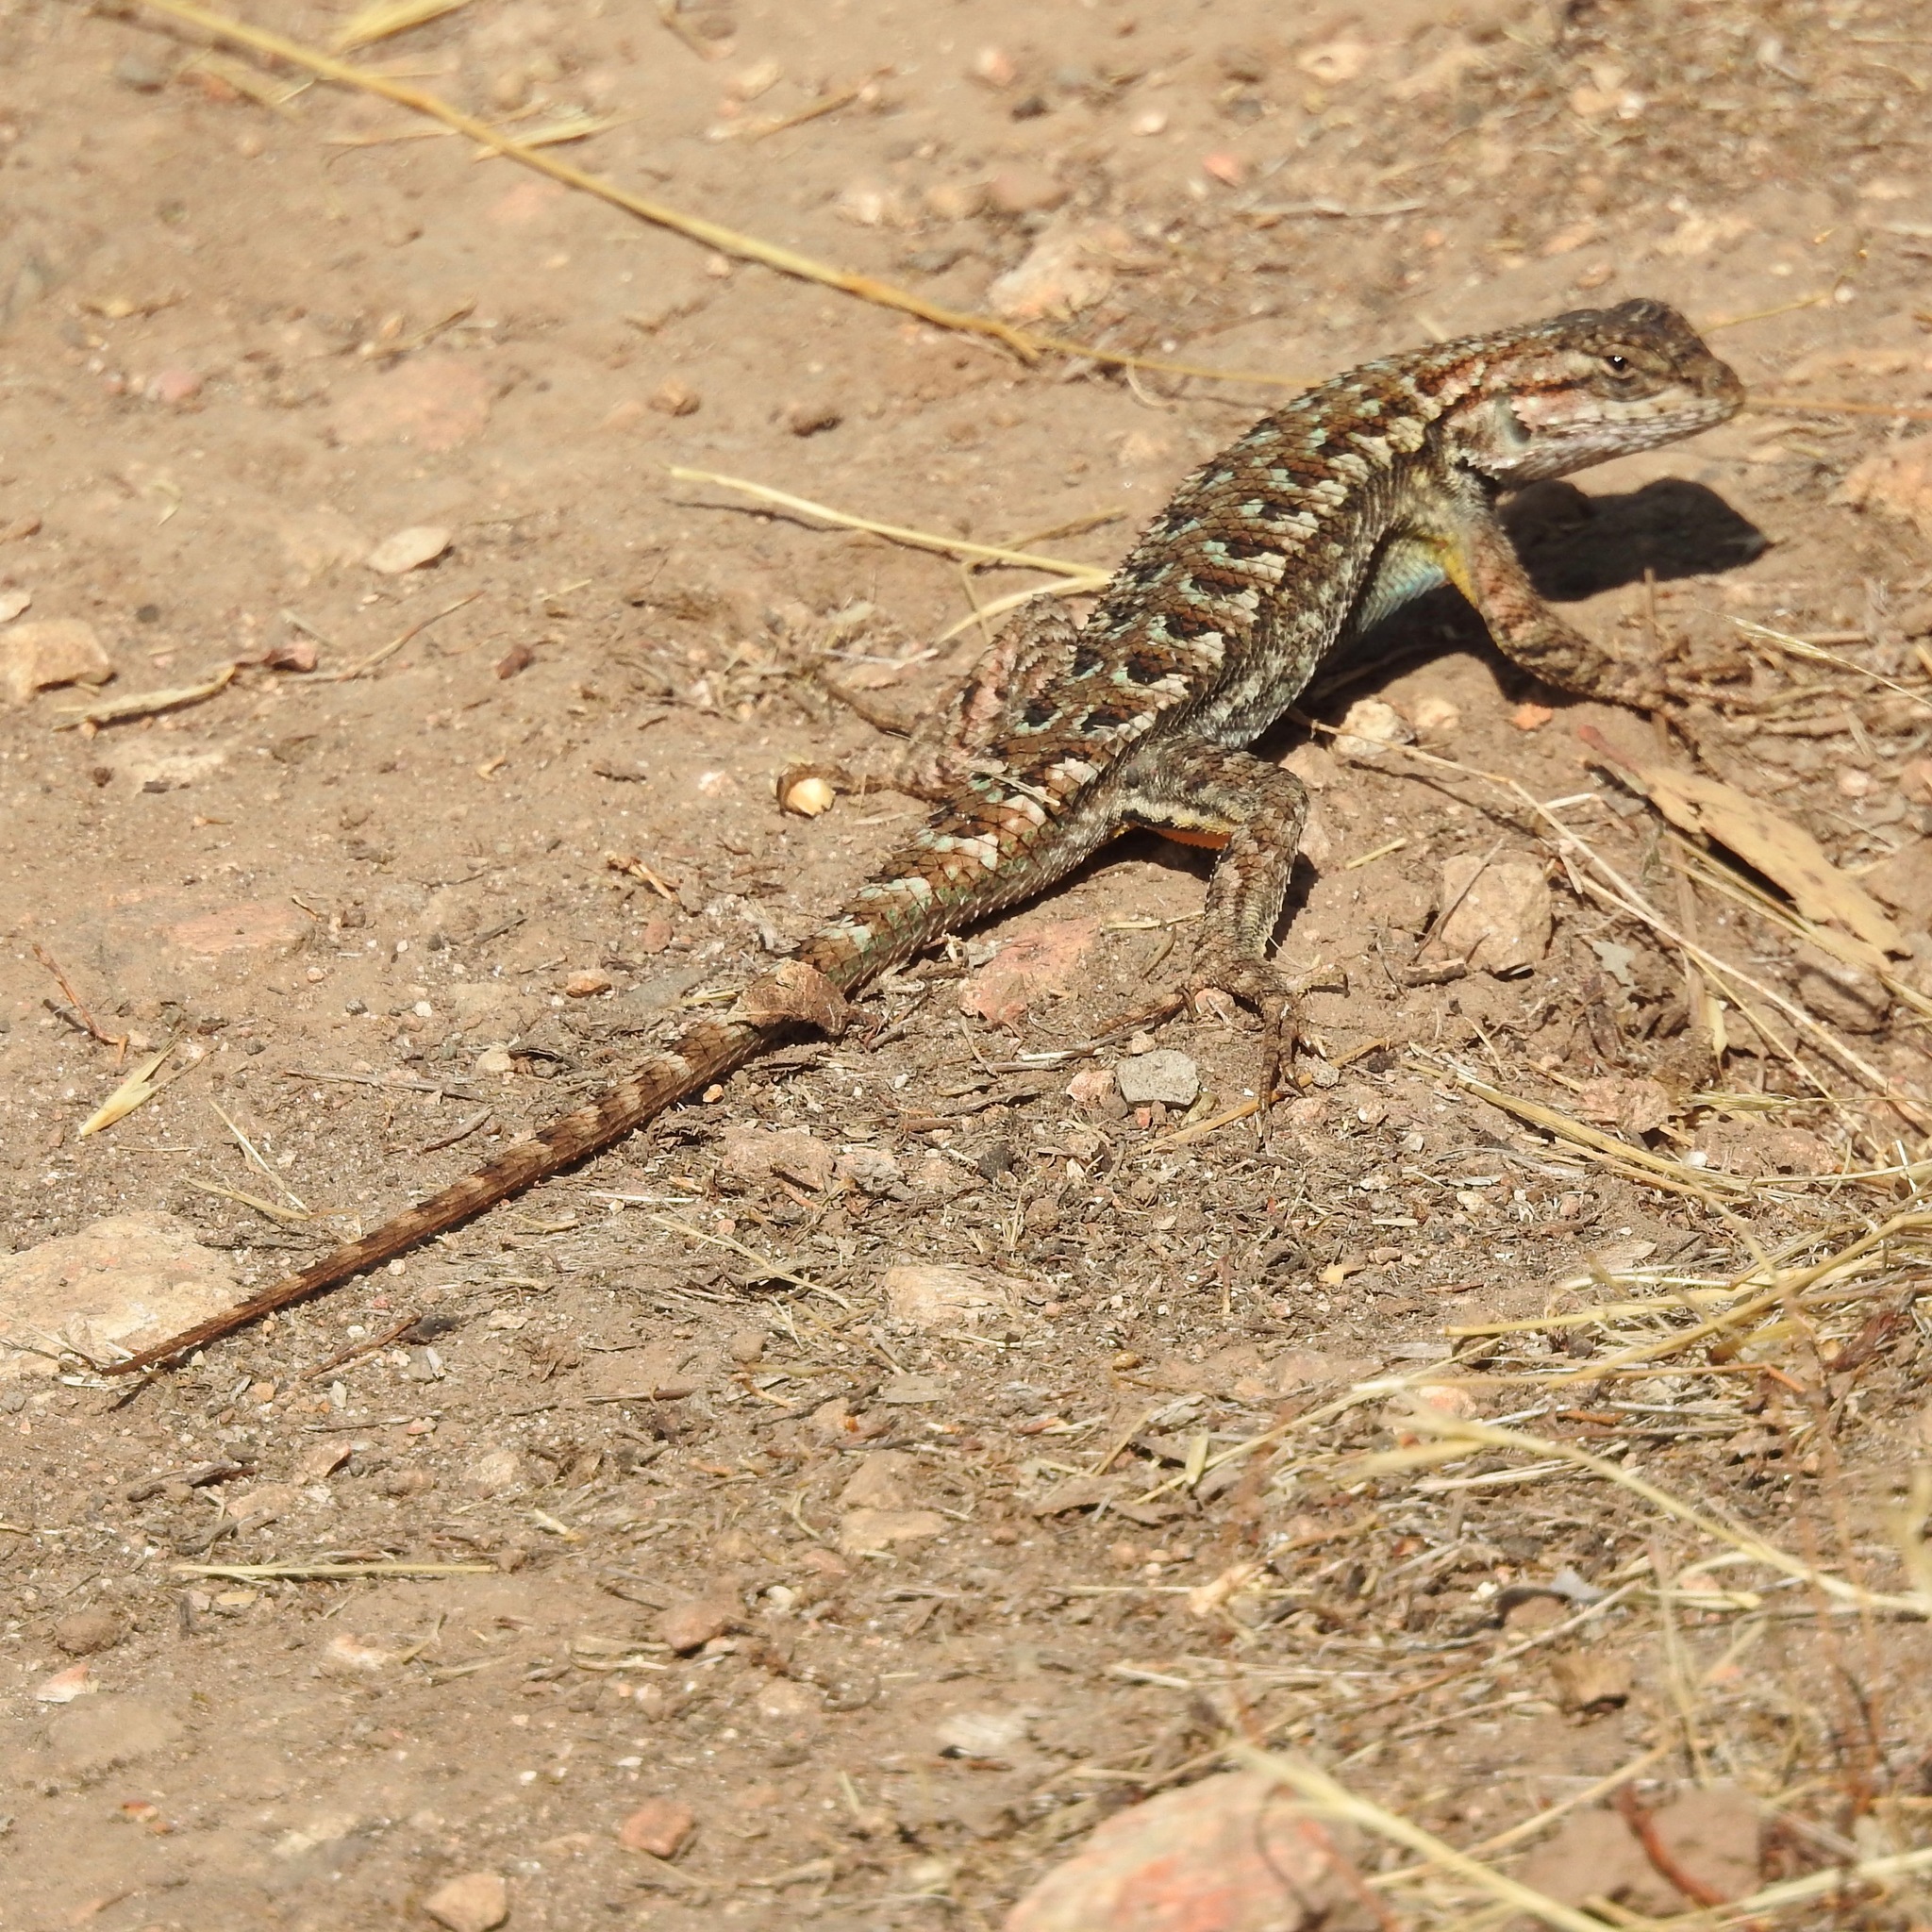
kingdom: Animalia
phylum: Chordata
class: Squamata
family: Phrynosomatidae
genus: Sceloporus
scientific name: Sceloporus occidentalis
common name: Western fence lizard
